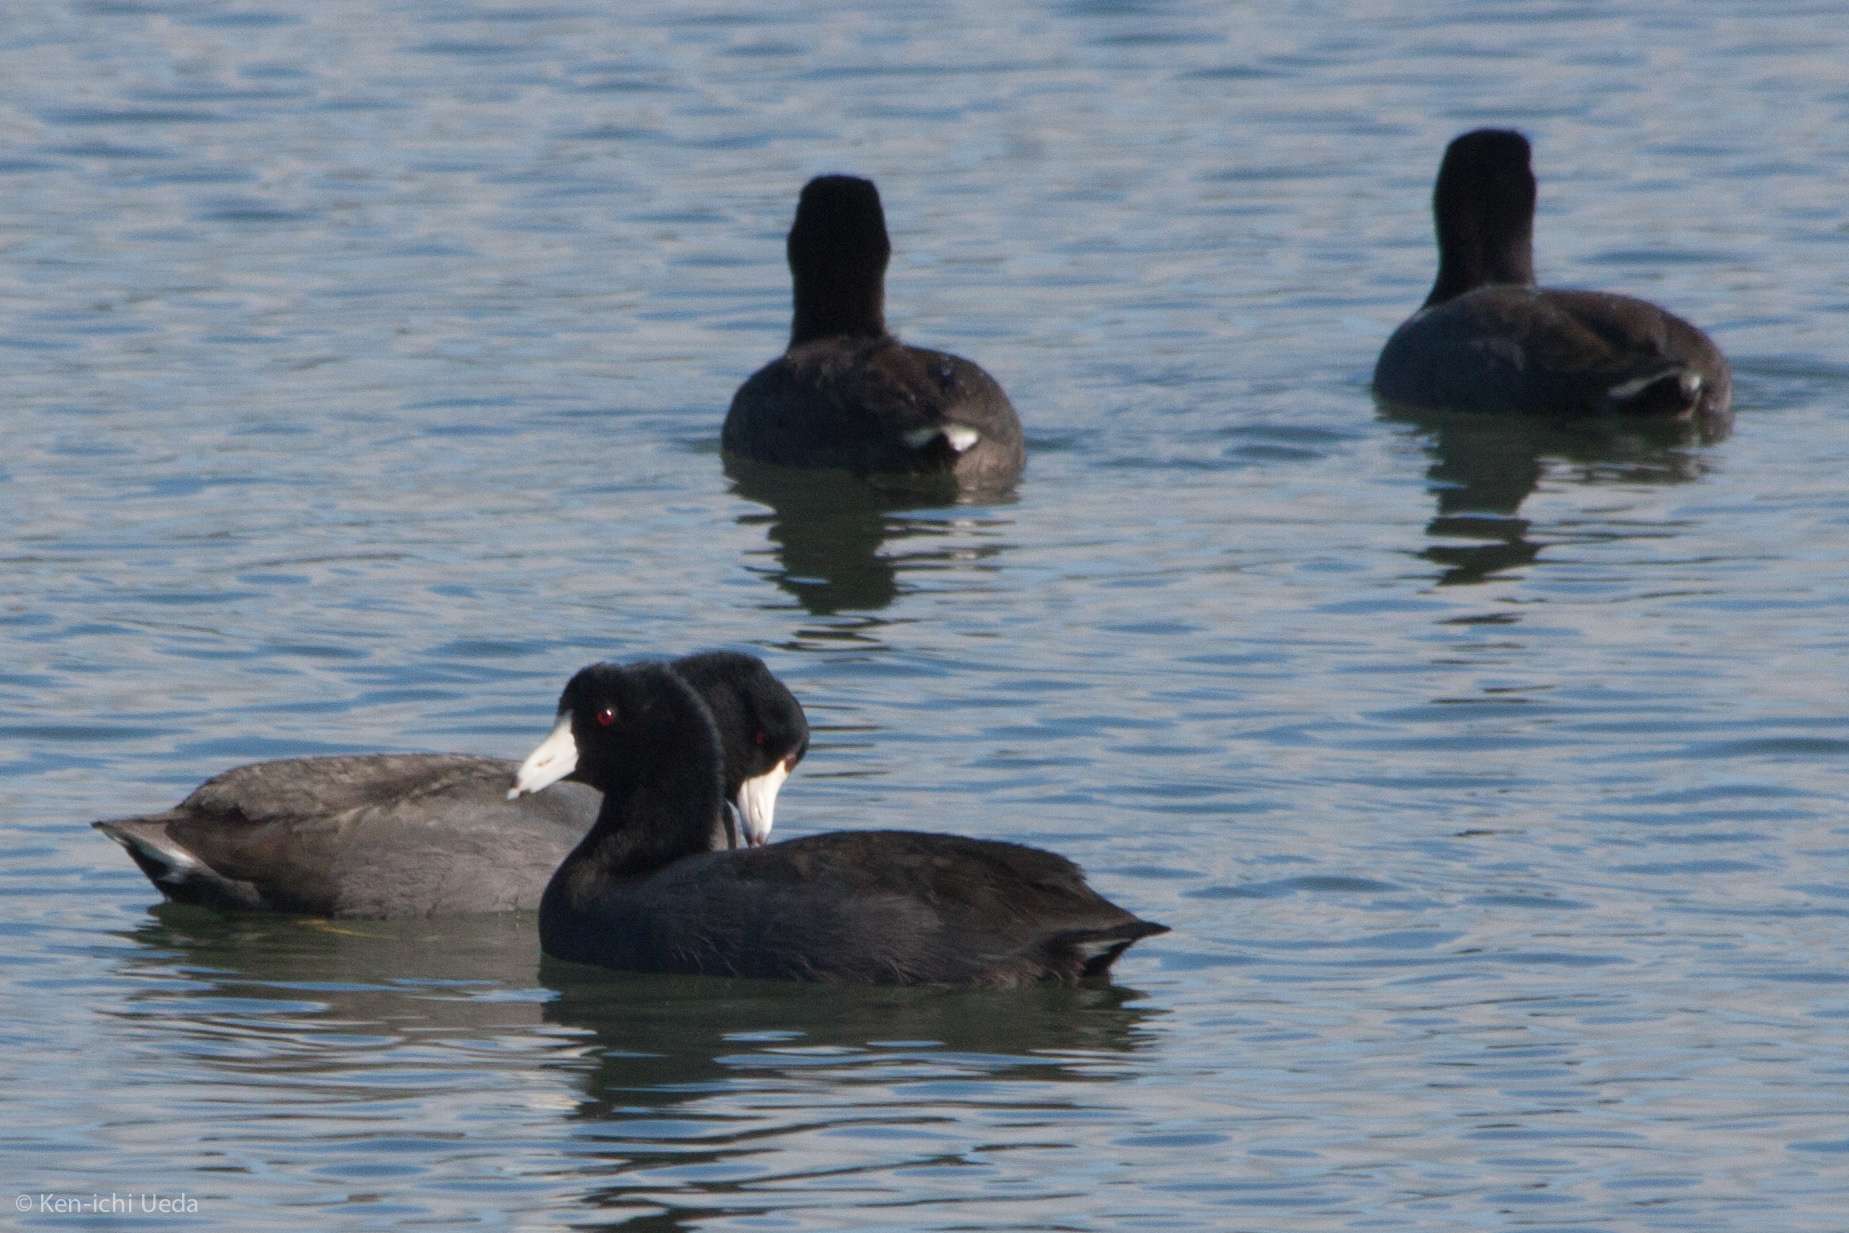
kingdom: Animalia
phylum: Chordata
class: Aves
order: Gruiformes
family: Rallidae
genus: Fulica
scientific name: Fulica americana
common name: American coot
